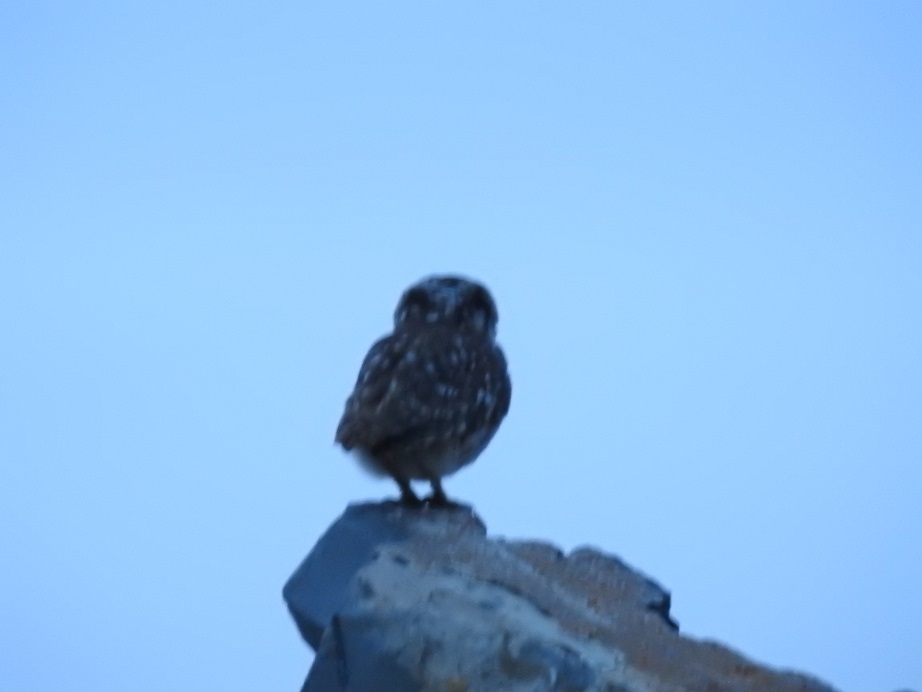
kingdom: Animalia
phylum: Chordata
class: Aves
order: Strigiformes
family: Strigidae
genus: Athene
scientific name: Athene noctua
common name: Little owl
